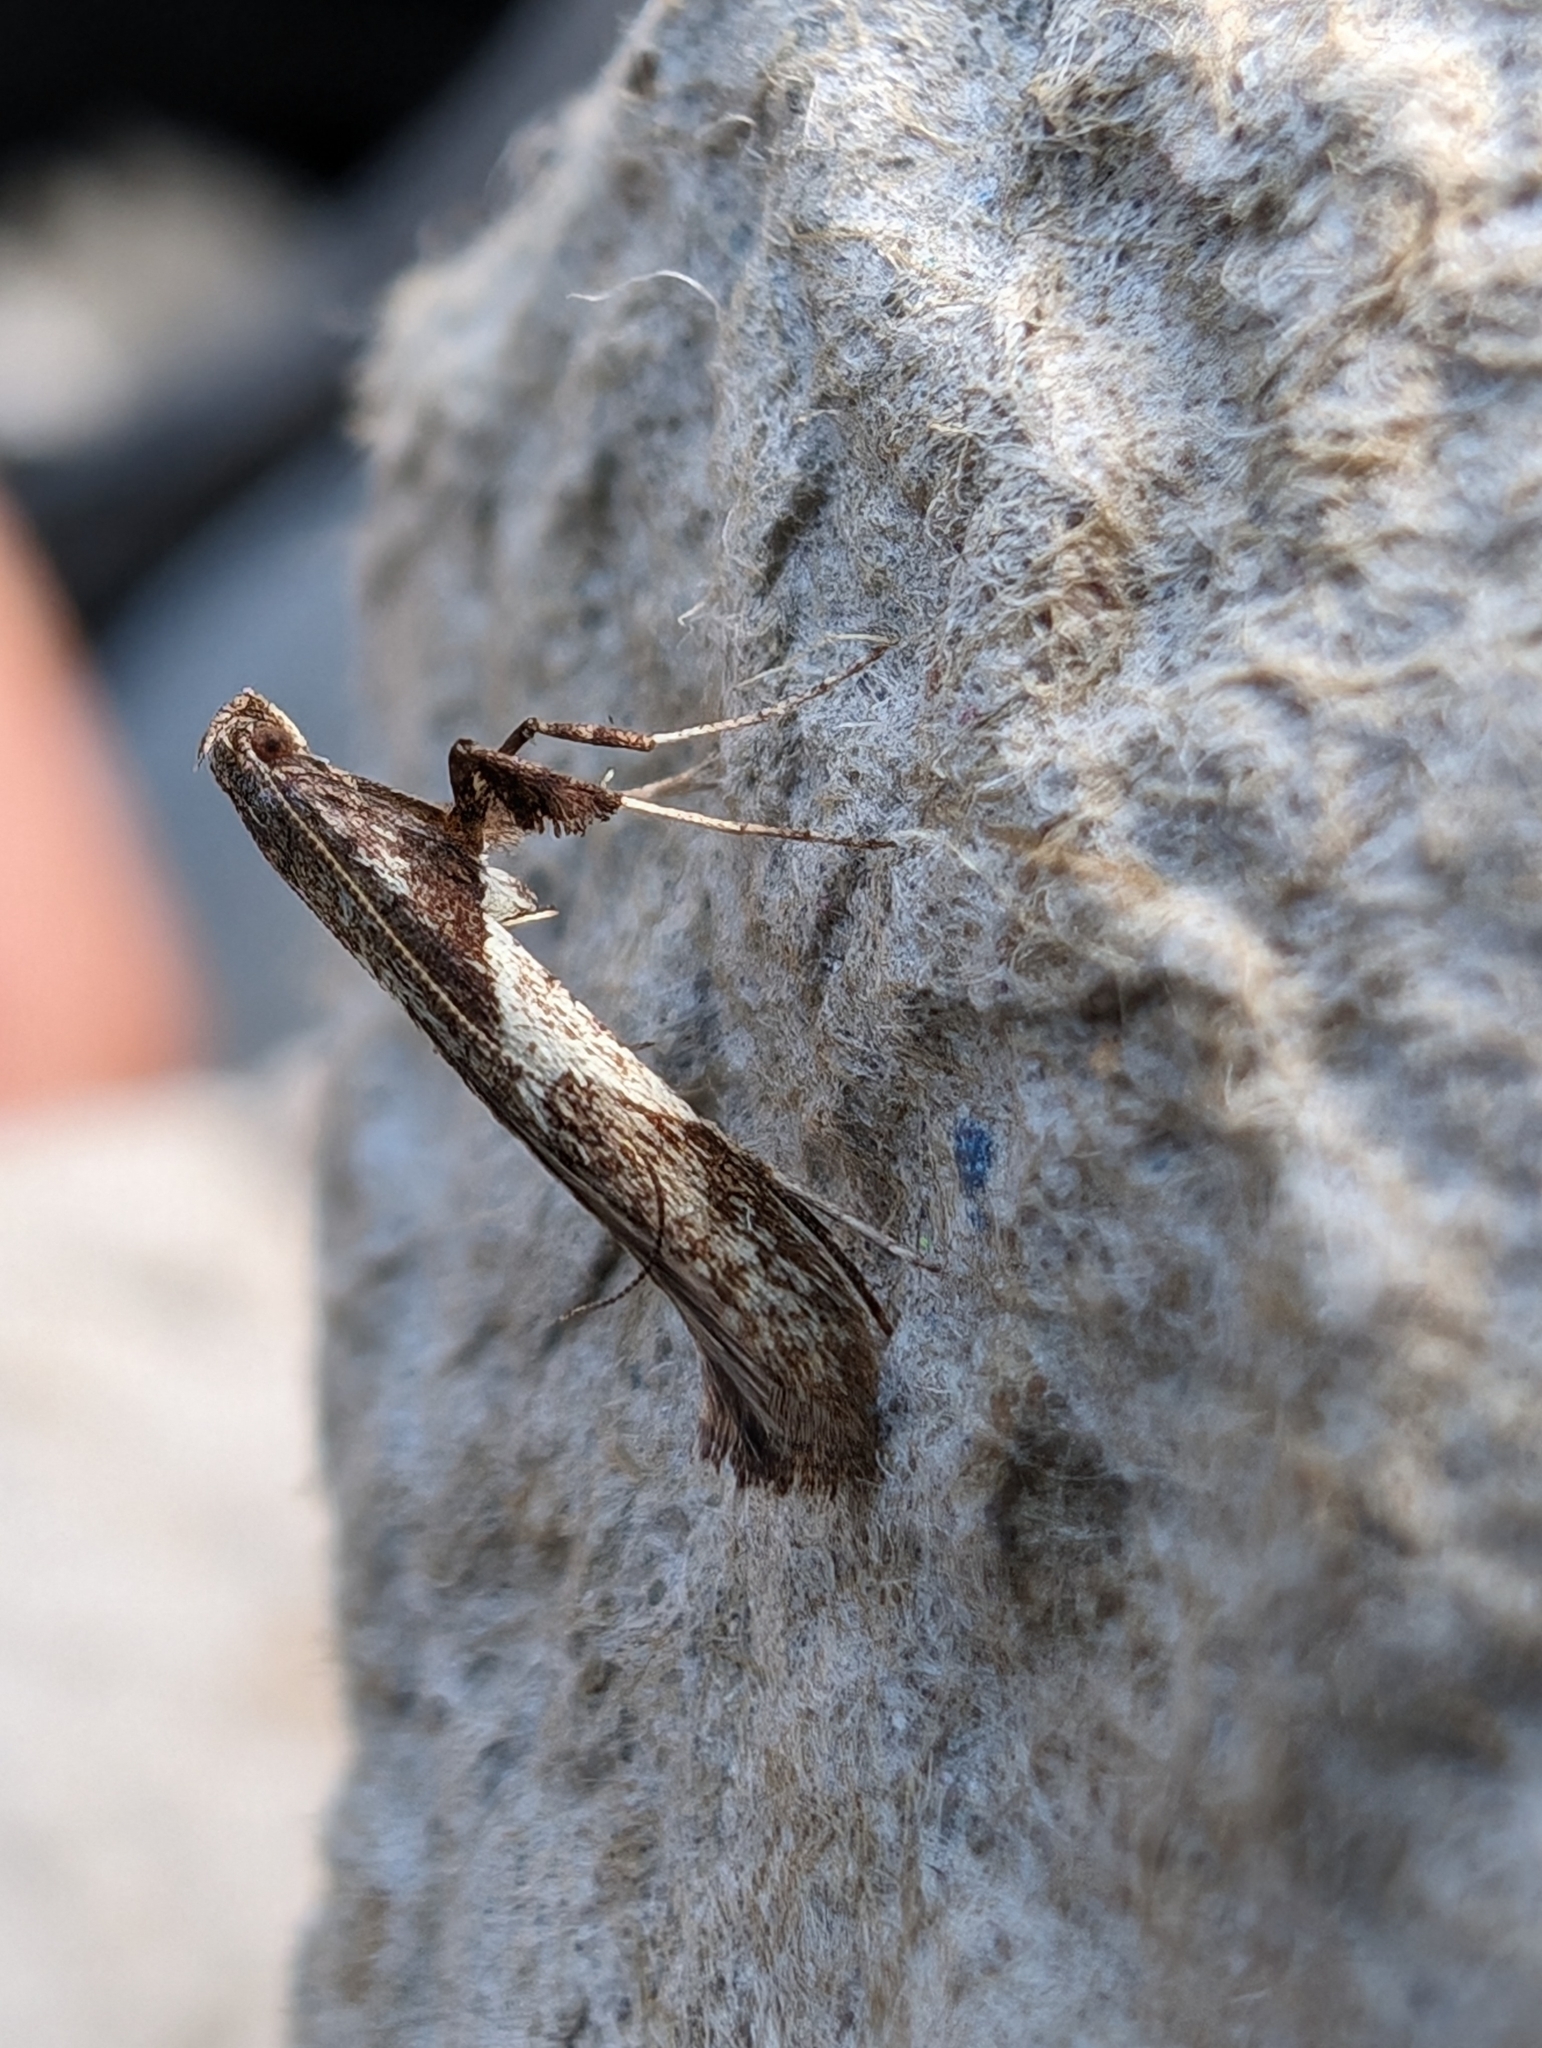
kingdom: Animalia
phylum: Arthropoda
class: Insecta
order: Lepidoptera
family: Gracillariidae
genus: Caloptilia
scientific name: Caloptilia stigmatella
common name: White-triangle slender
